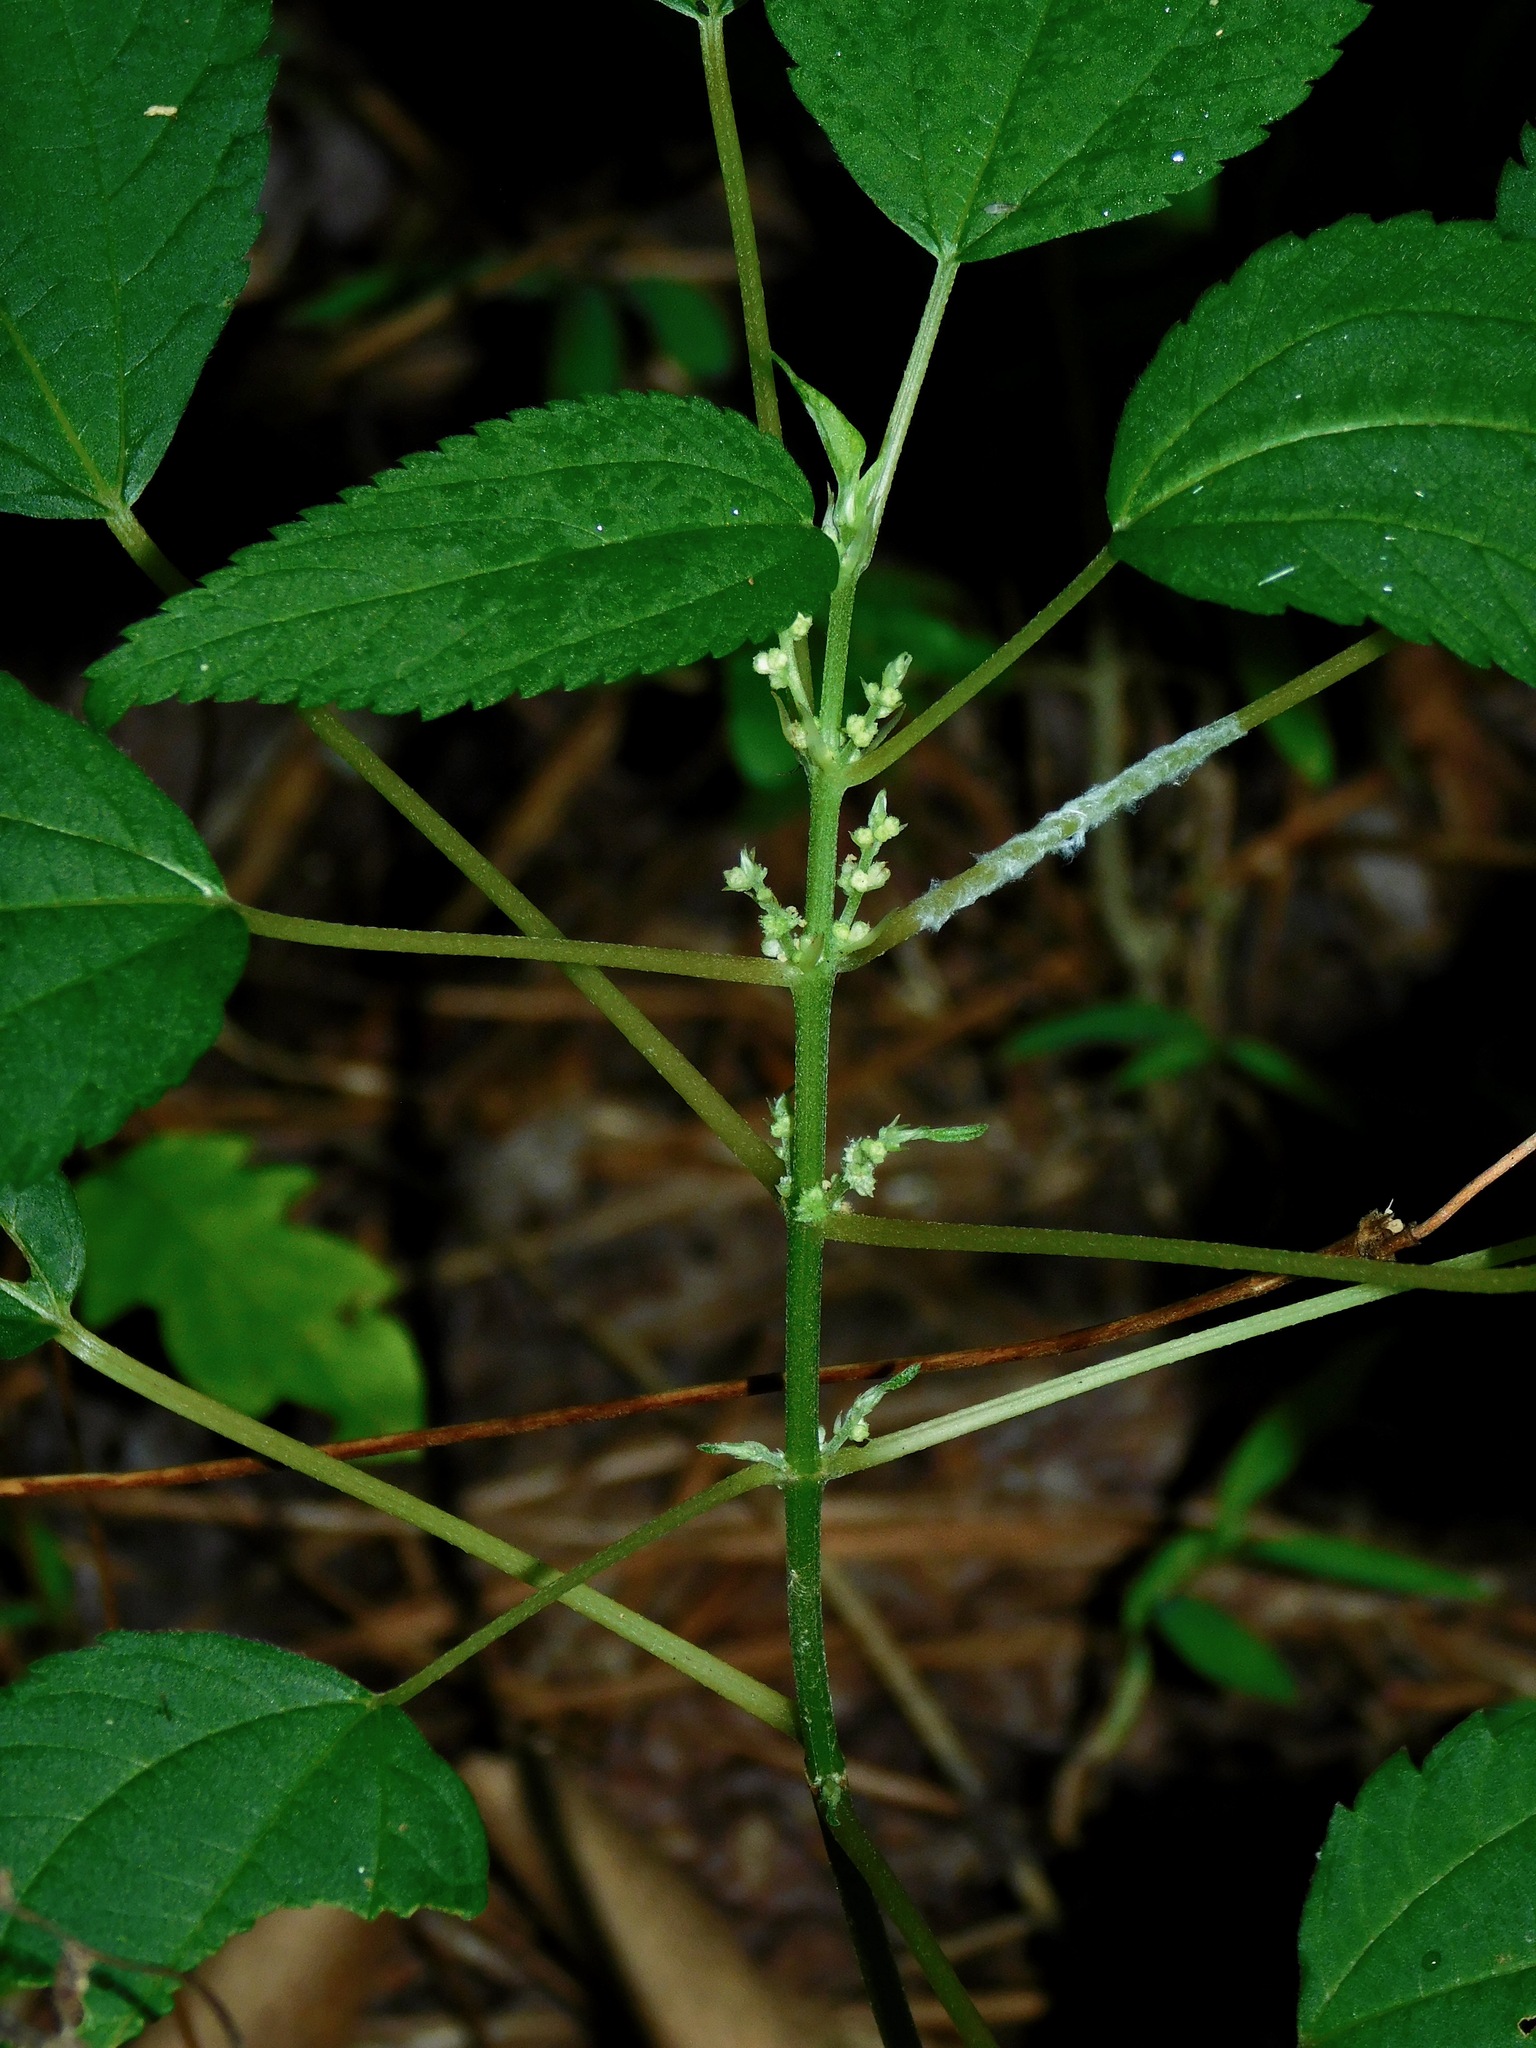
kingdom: Plantae
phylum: Tracheophyta
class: Magnoliopsida
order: Rosales
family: Urticaceae
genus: Boehmeria
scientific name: Boehmeria cylindrica
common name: Bog-hemp
